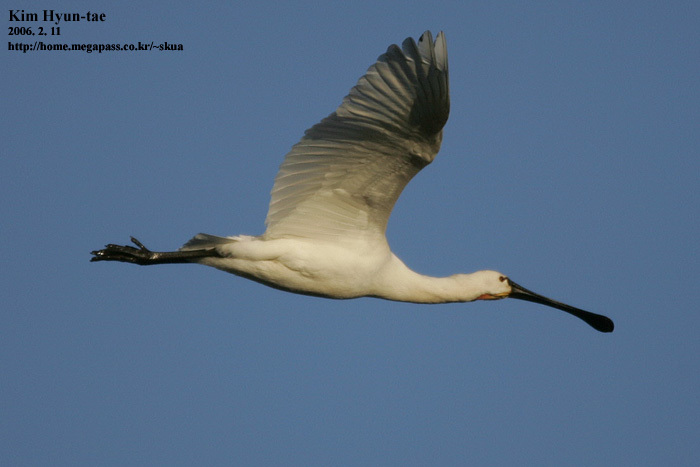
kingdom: Animalia
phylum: Chordata
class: Aves
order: Pelecaniformes
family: Threskiornithidae
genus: Platalea
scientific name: Platalea leucorodia
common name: Eurasian spoonbill
